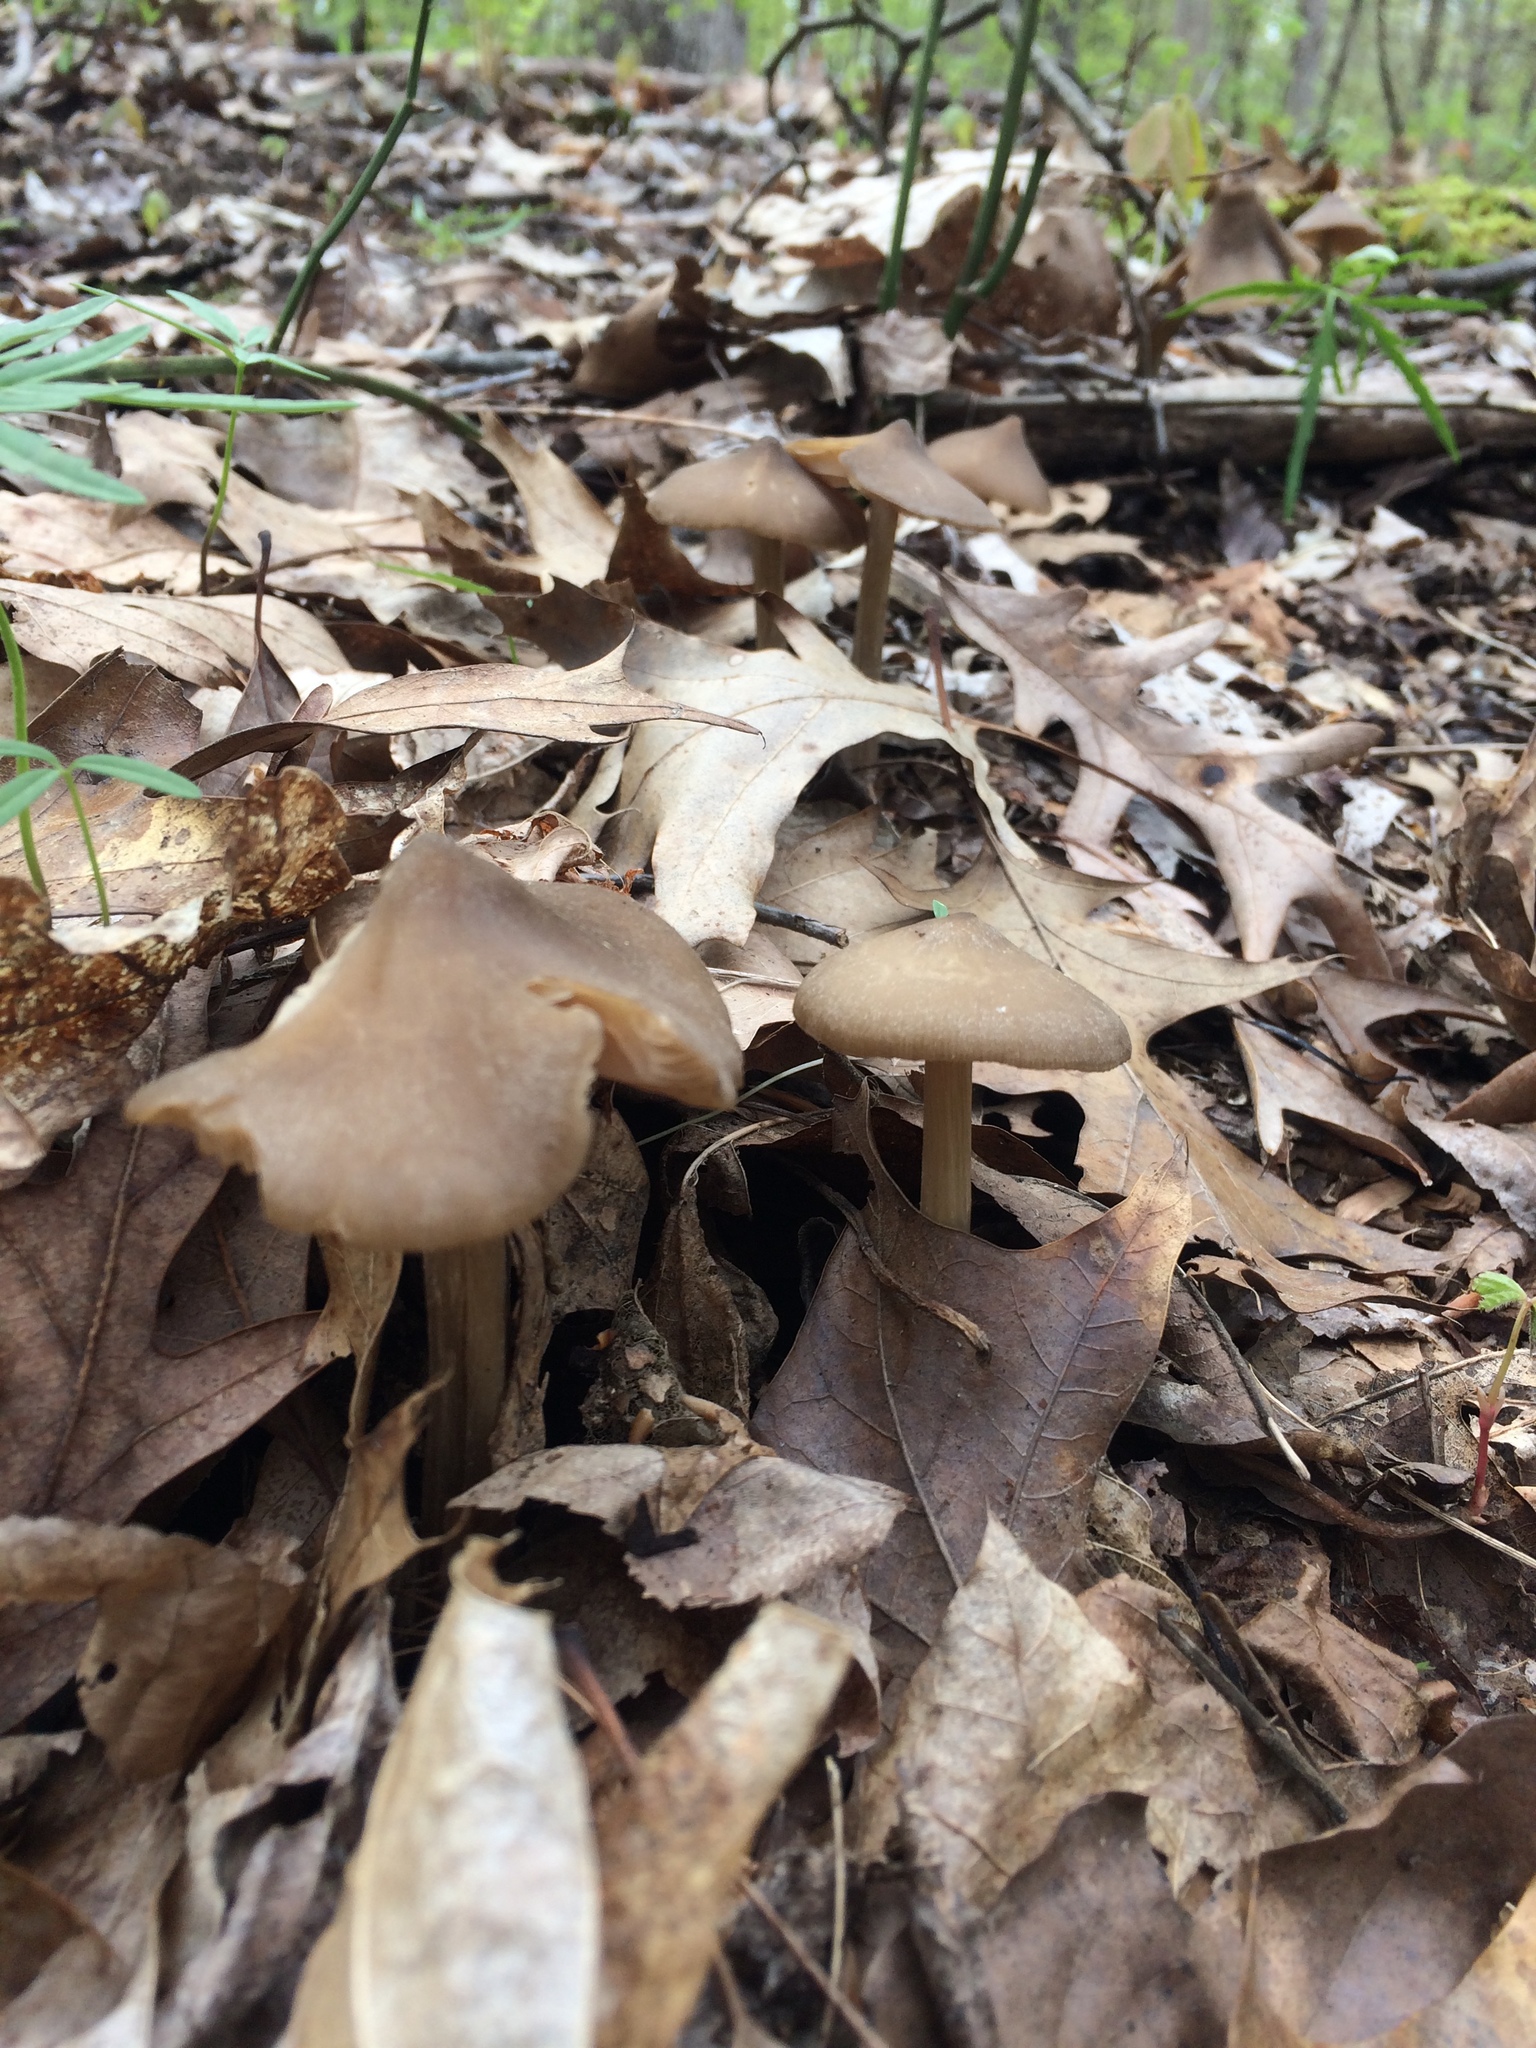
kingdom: Fungi
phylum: Basidiomycota
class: Agaricomycetes
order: Agaricales
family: Entolomataceae
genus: Entoloma
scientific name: Entoloma vernum
